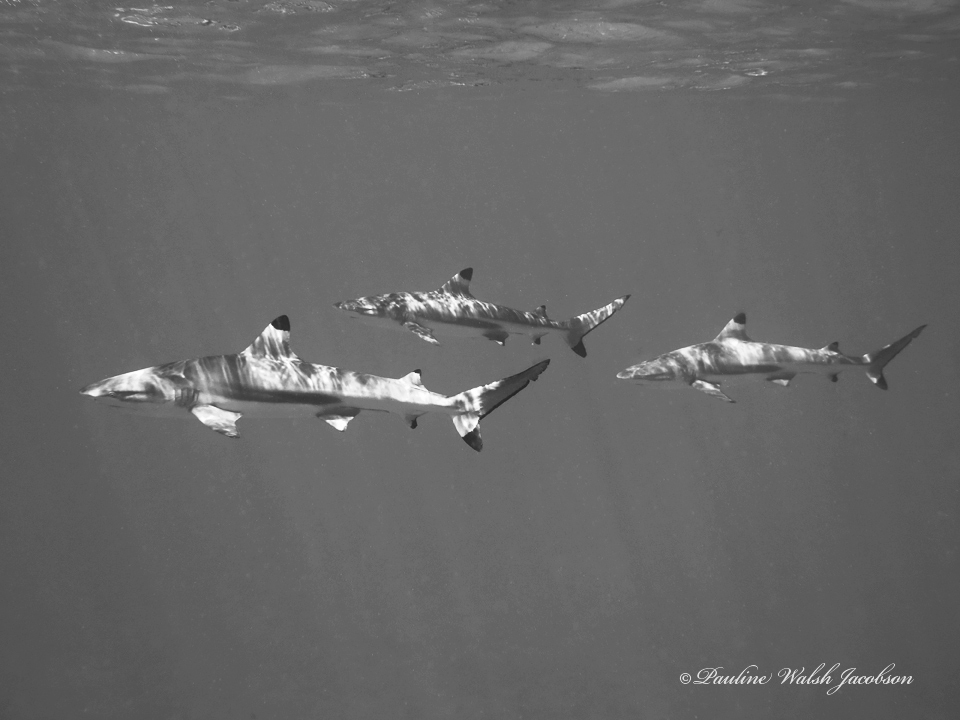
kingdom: Animalia
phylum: Chordata
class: Elasmobranchii
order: Carcharhiniformes
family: Carcharhinidae
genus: Carcharhinus
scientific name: Carcharhinus melanopterus
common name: Blacktip reef shark
